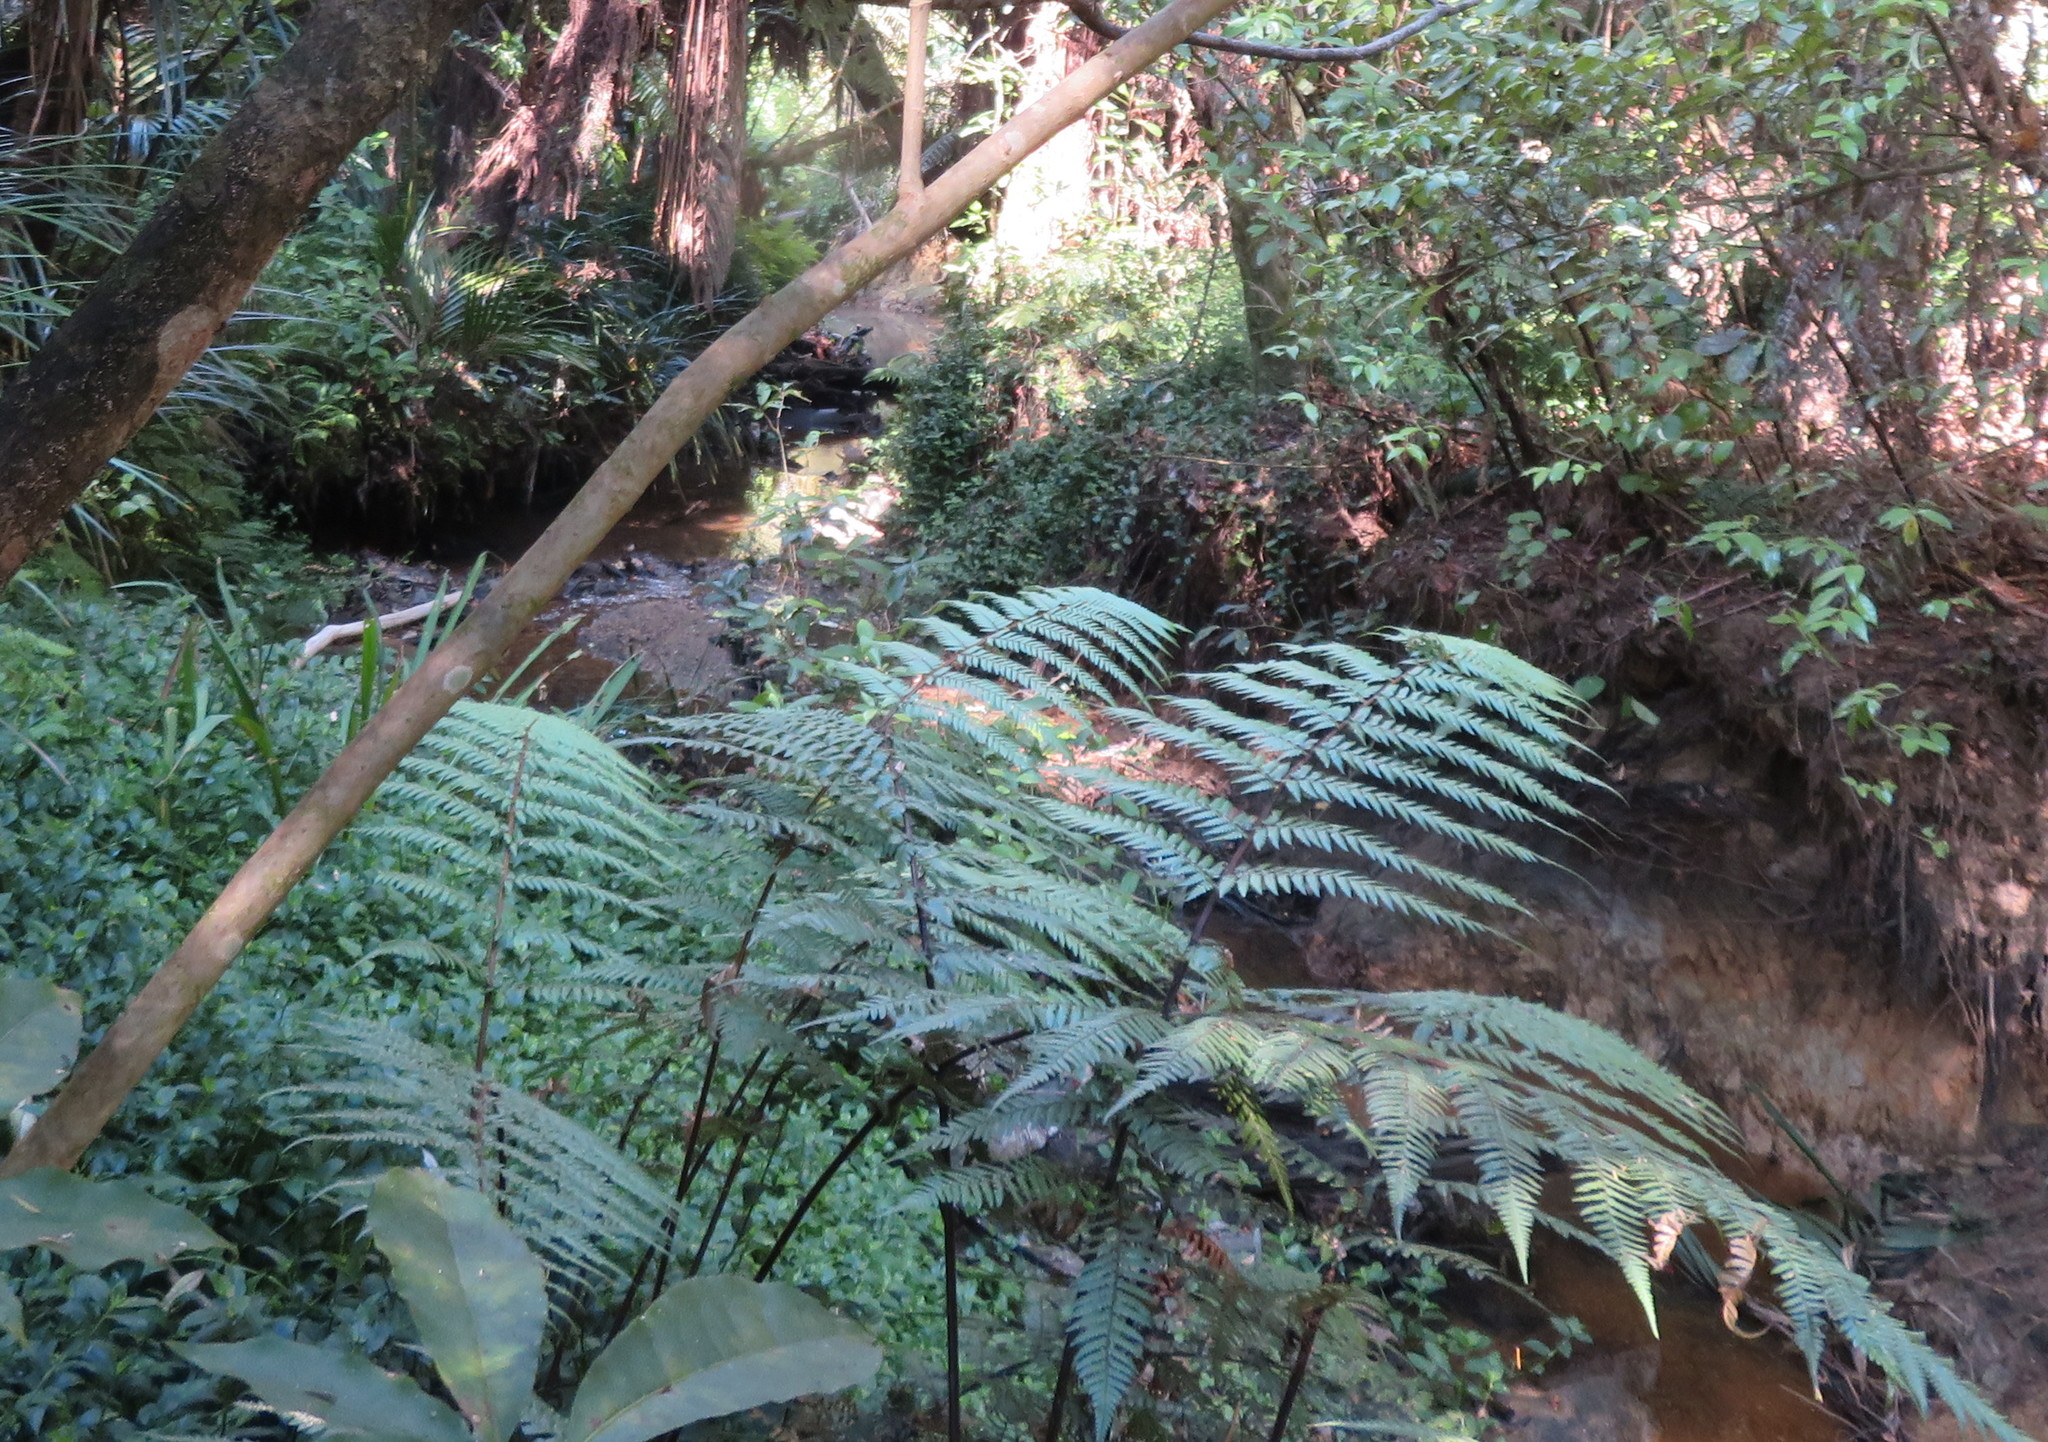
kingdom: Plantae
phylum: Tracheophyta
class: Polypodiopsida
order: Cyatheales
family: Dicksoniaceae
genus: Dicksonia
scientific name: Dicksonia squarrosa
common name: Hard treefern
